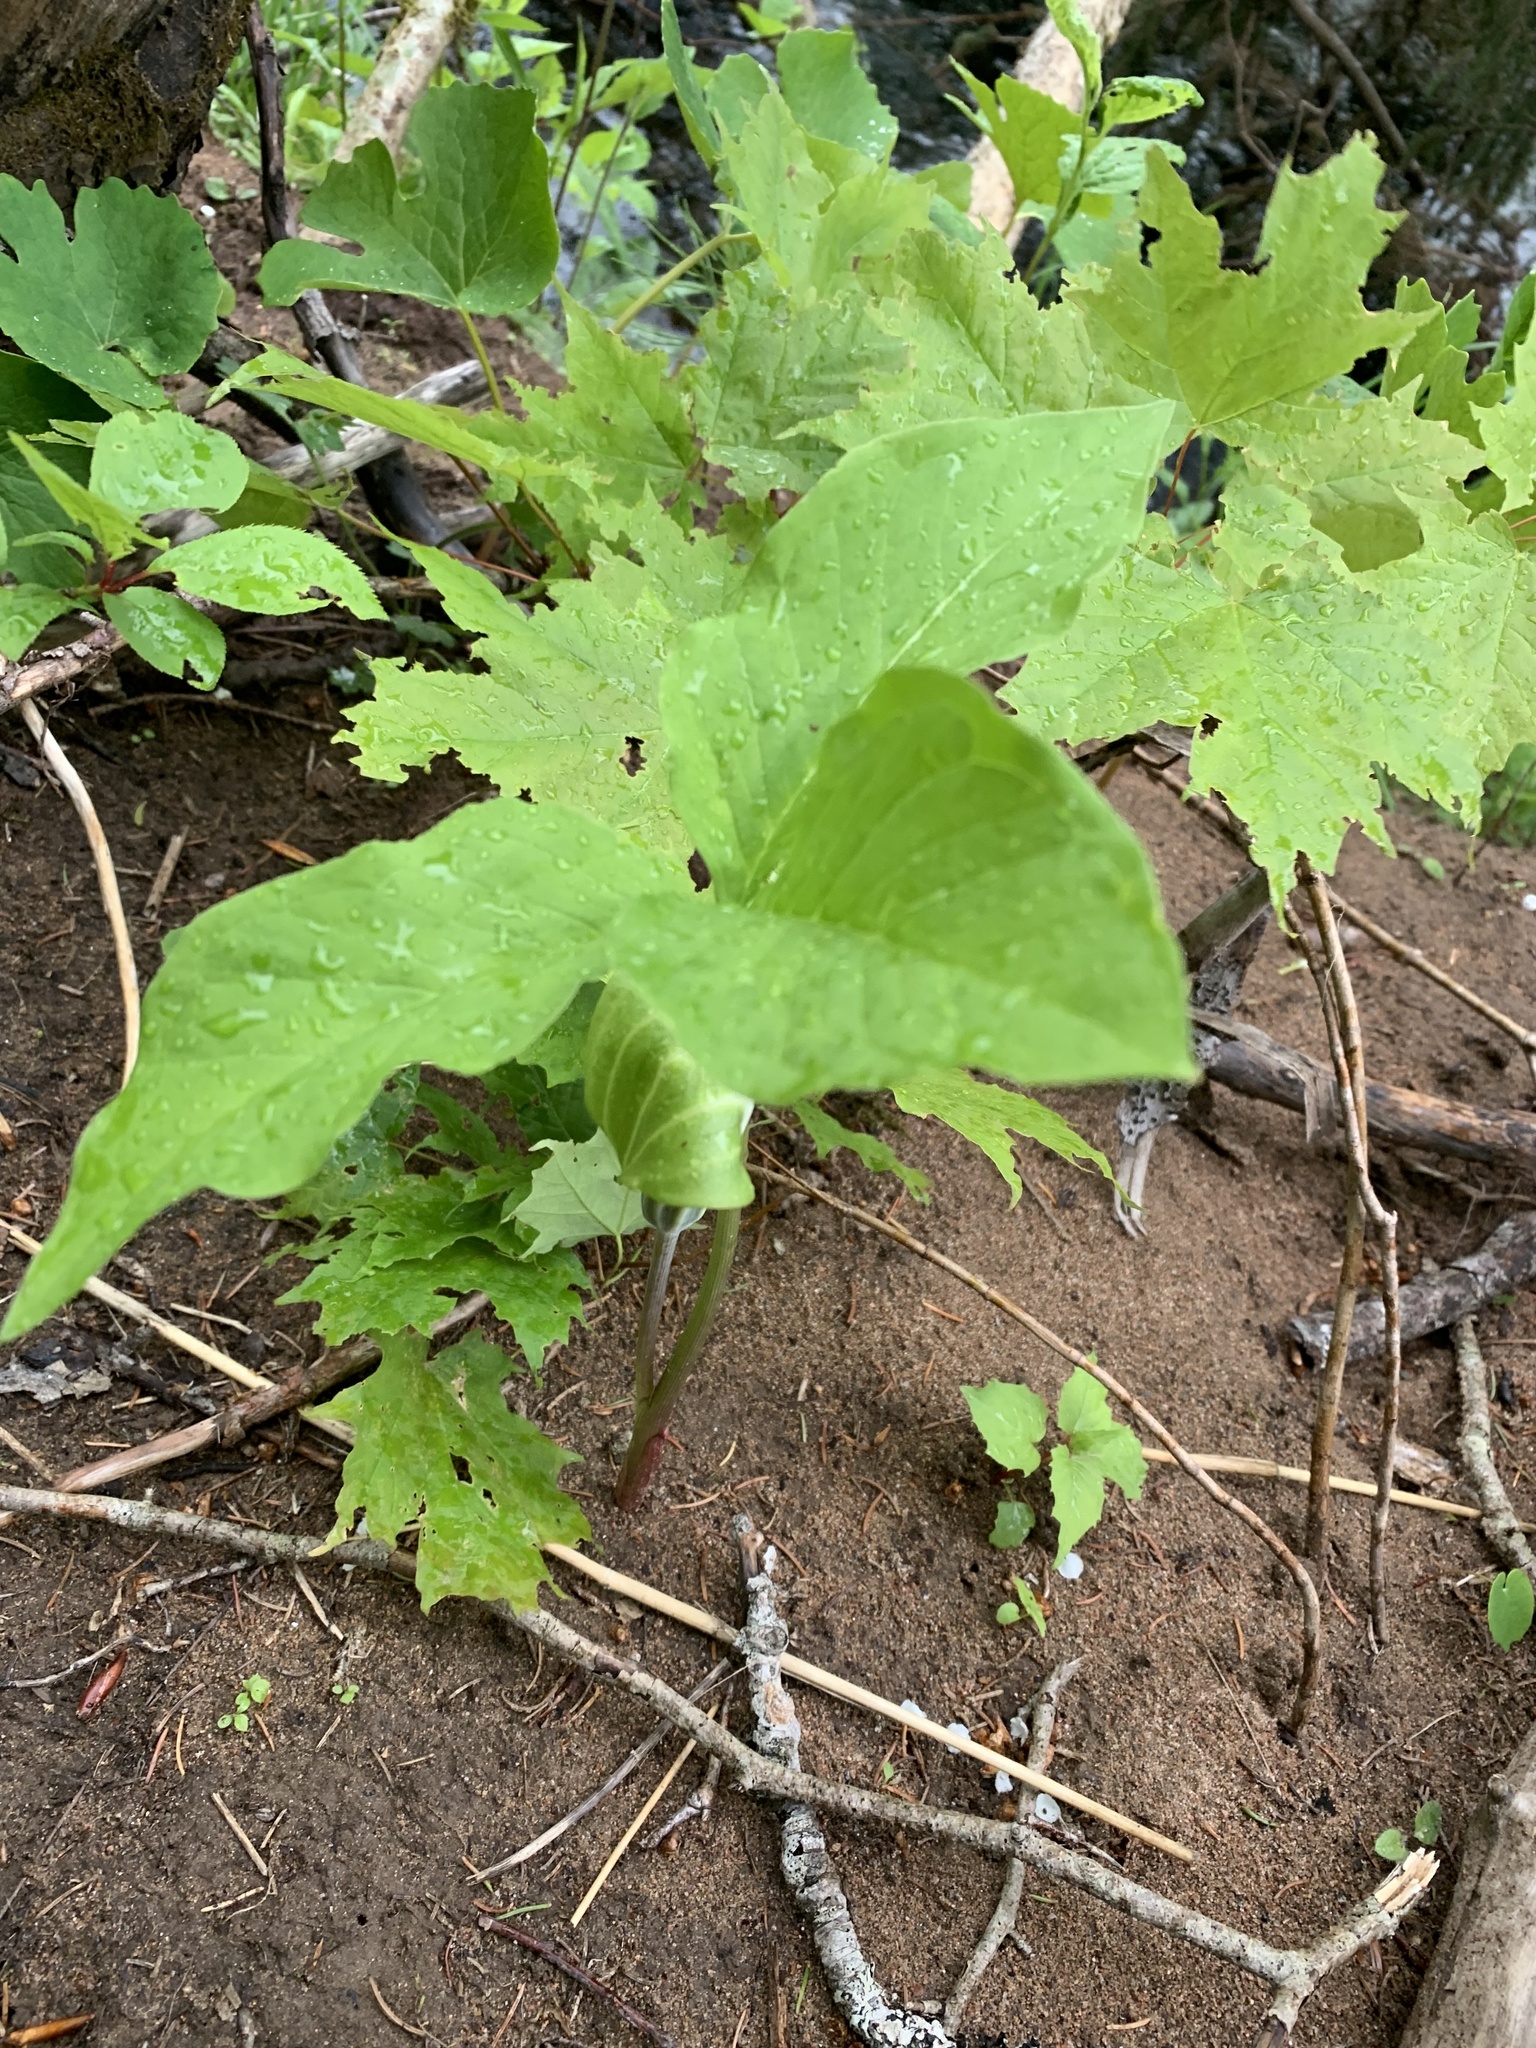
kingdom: Plantae
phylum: Tracheophyta
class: Liliopsida
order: Alismatales
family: Araceae
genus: Arisaema
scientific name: Arisaema stewardsonii
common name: Swamp jack-in-the-pulpit
